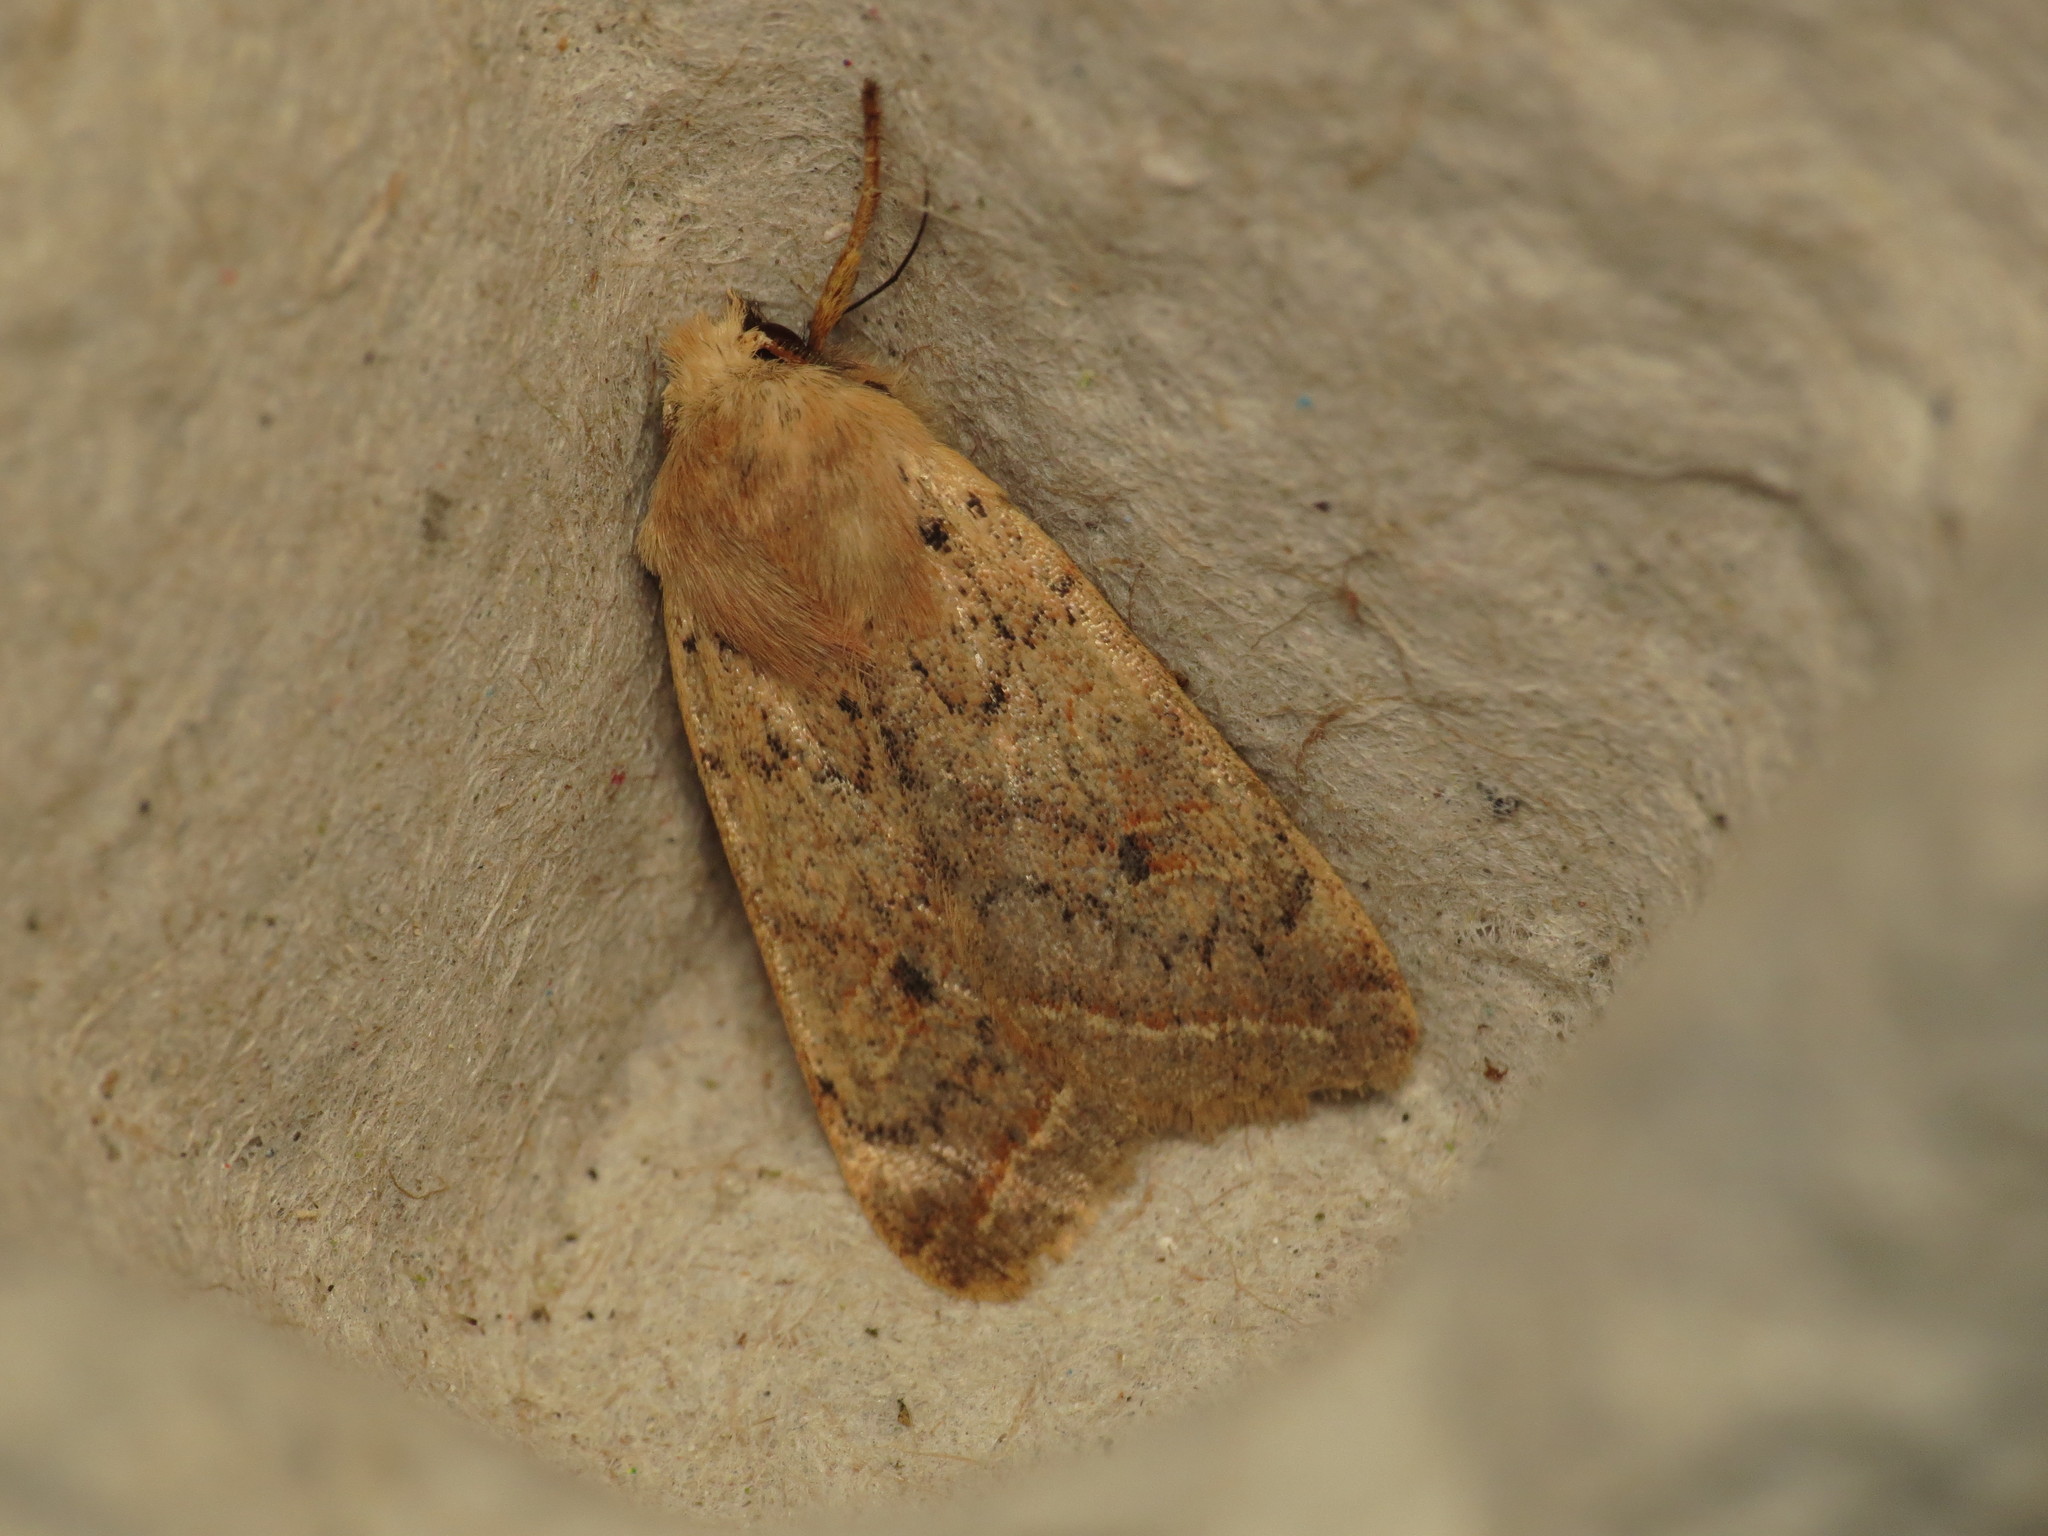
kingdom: Animalia
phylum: Arthropoda
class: Insecta
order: Lepidoptera
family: Noctuidae
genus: Agrochola
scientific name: Agrochola macilenta
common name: Yellow-line quaker
